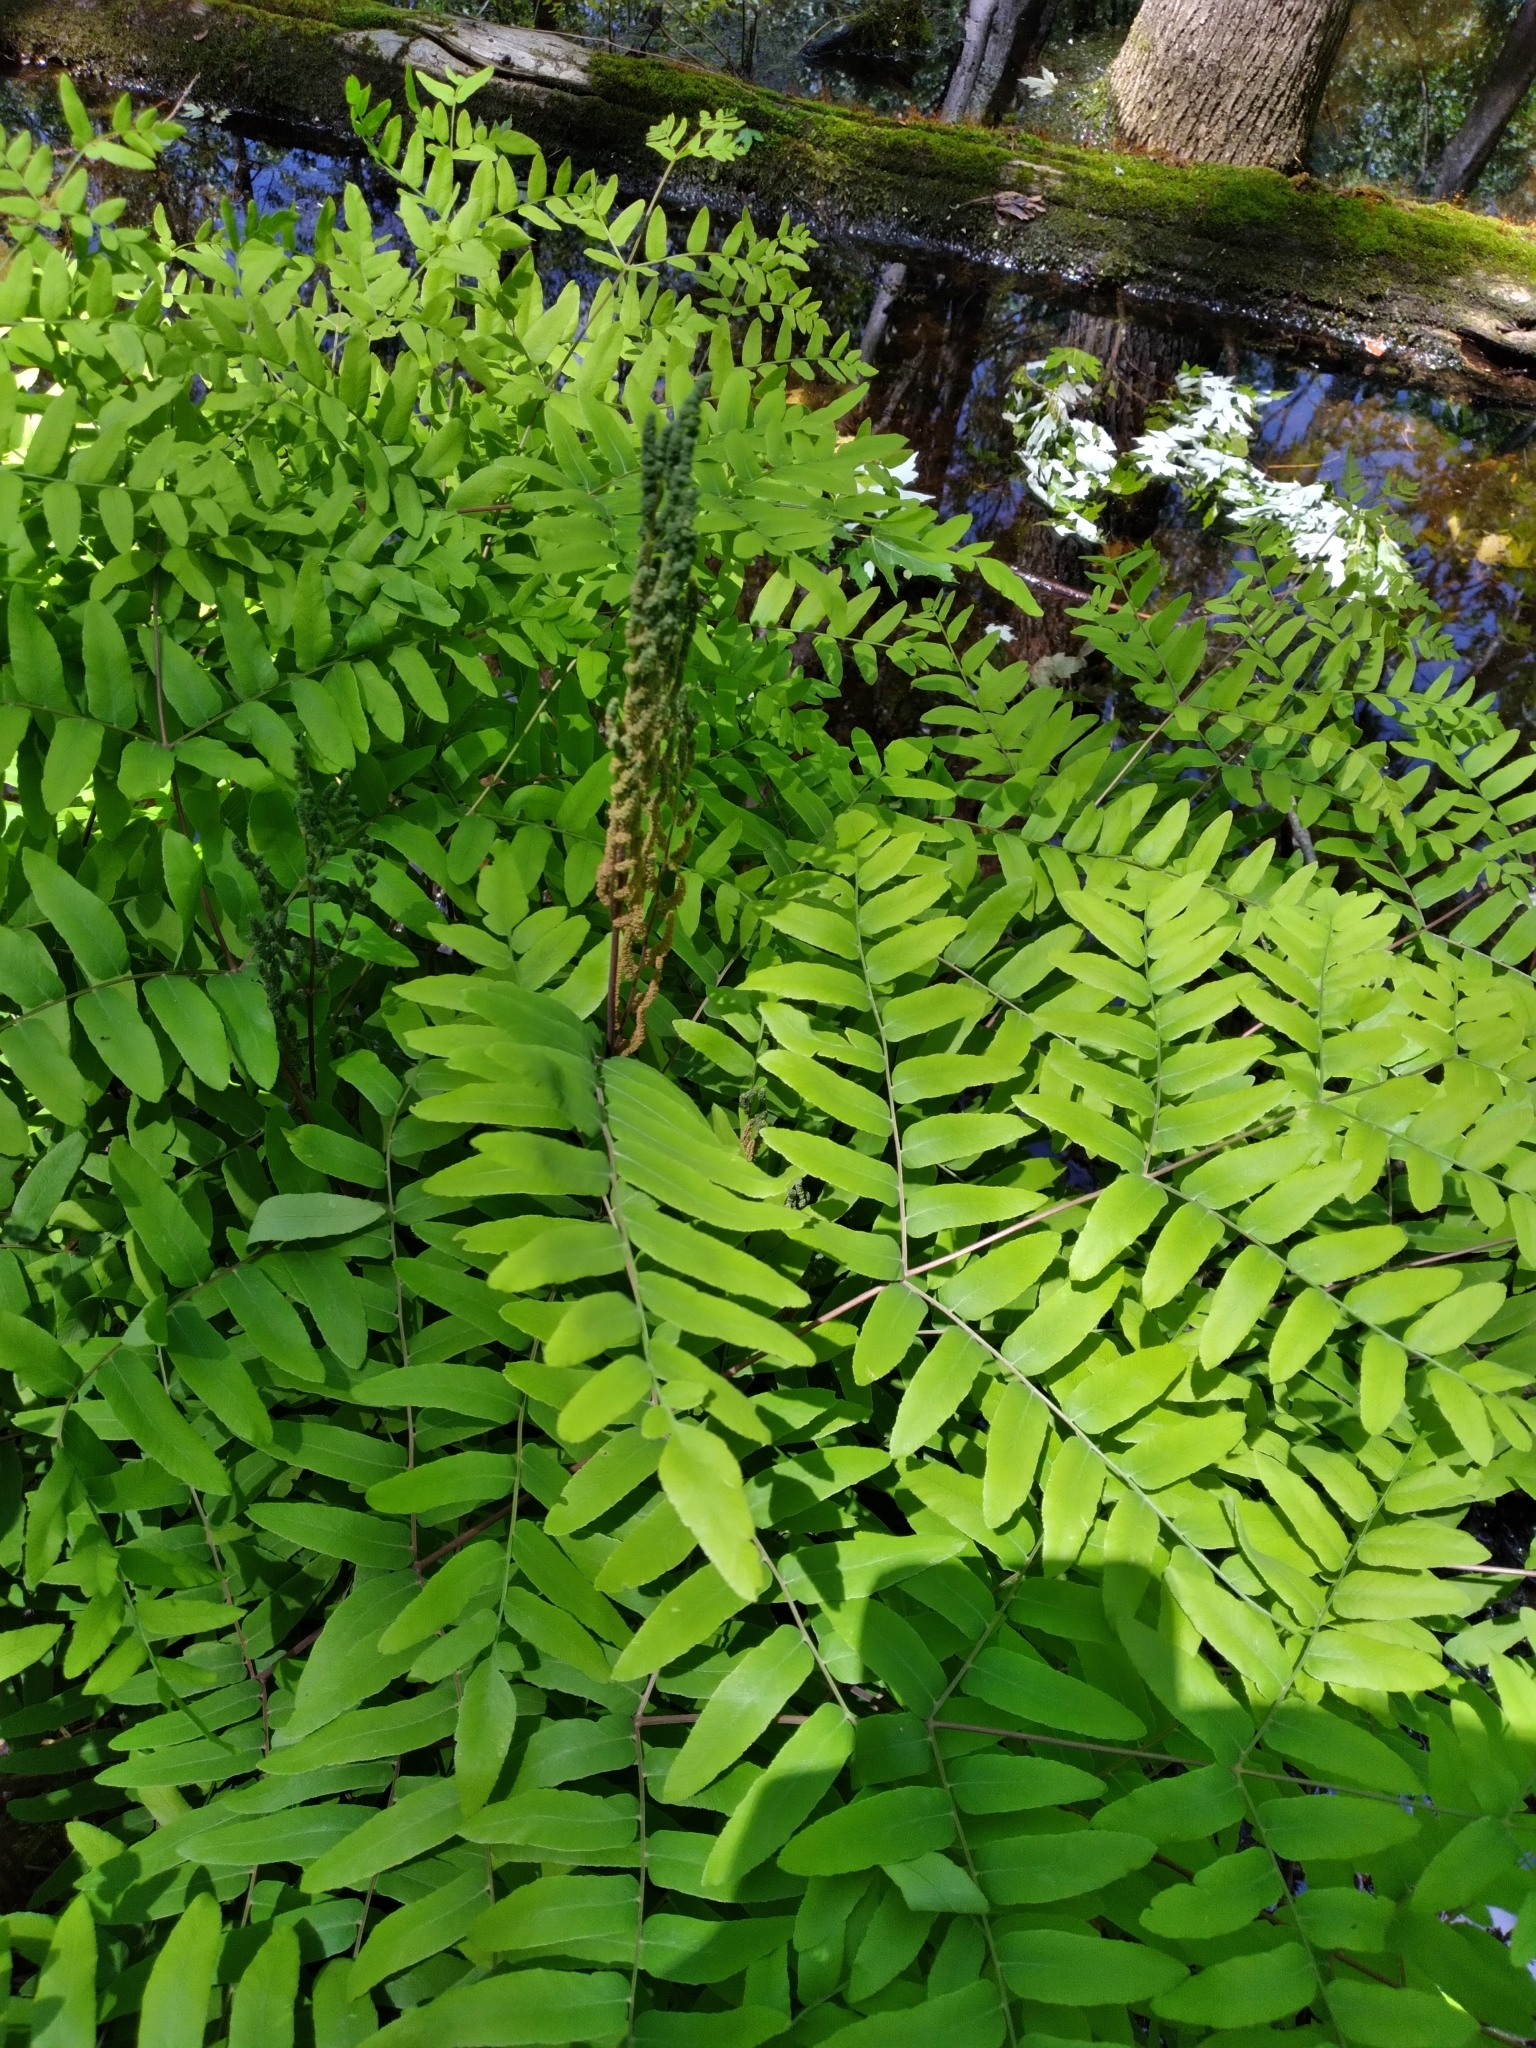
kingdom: Plantae
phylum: Tracheophyta
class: Polypodiopsida
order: Osmundales
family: Osmundaceae
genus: Osmunda
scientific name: Osmunda spectabilis
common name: American royal fern
